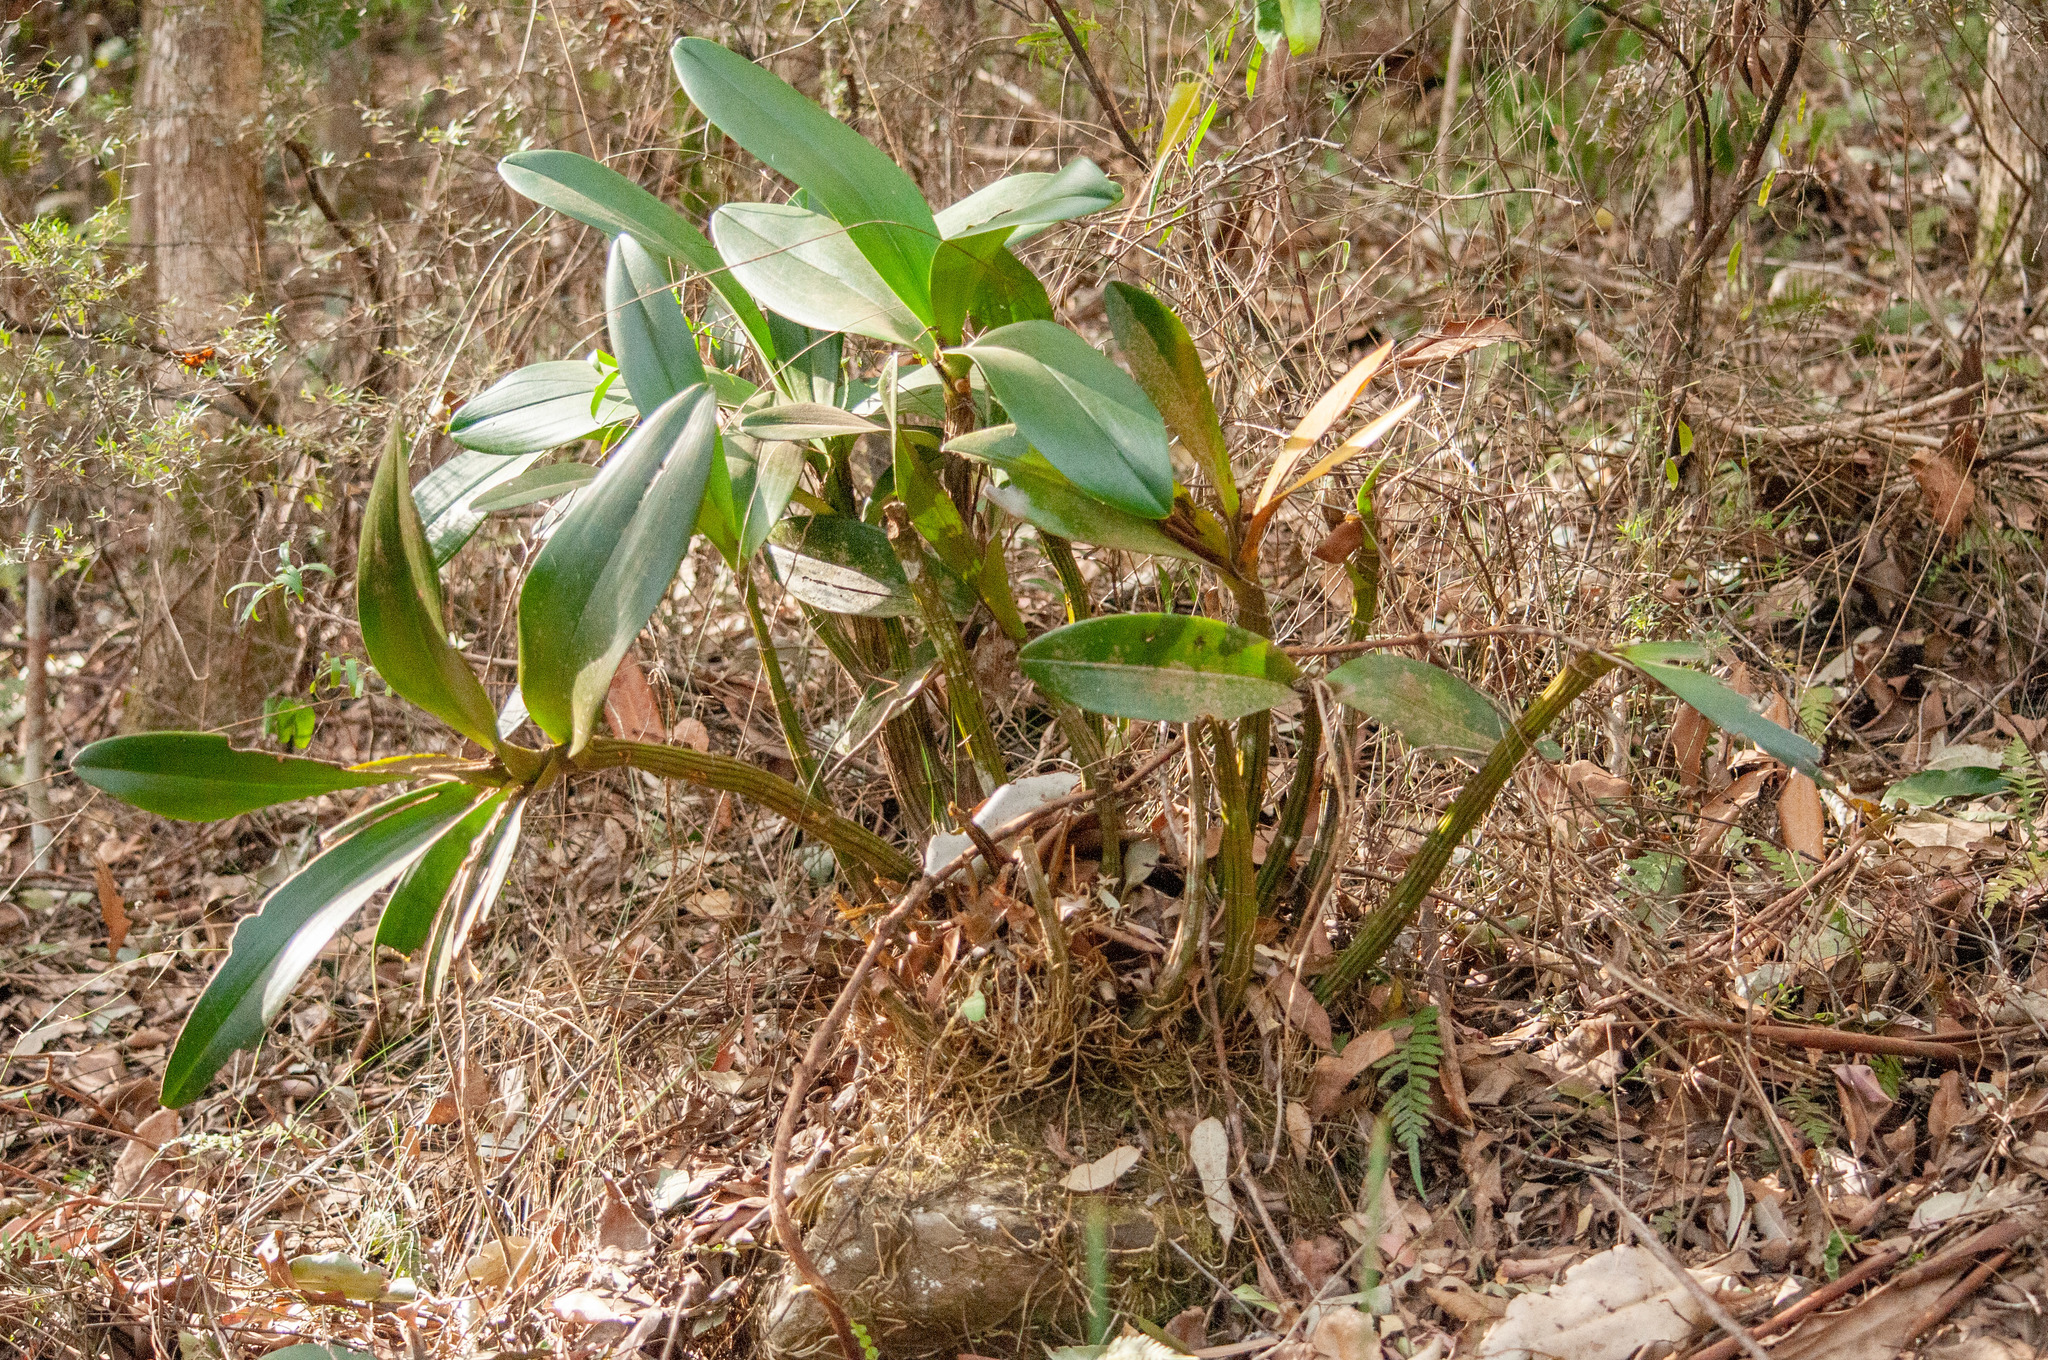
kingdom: Plantae
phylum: Tracheophyta
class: Liliopsida
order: Asparagales
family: Orchidaceae
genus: Dendrobium
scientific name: Dendrobium speciosum
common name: Rock-lily
